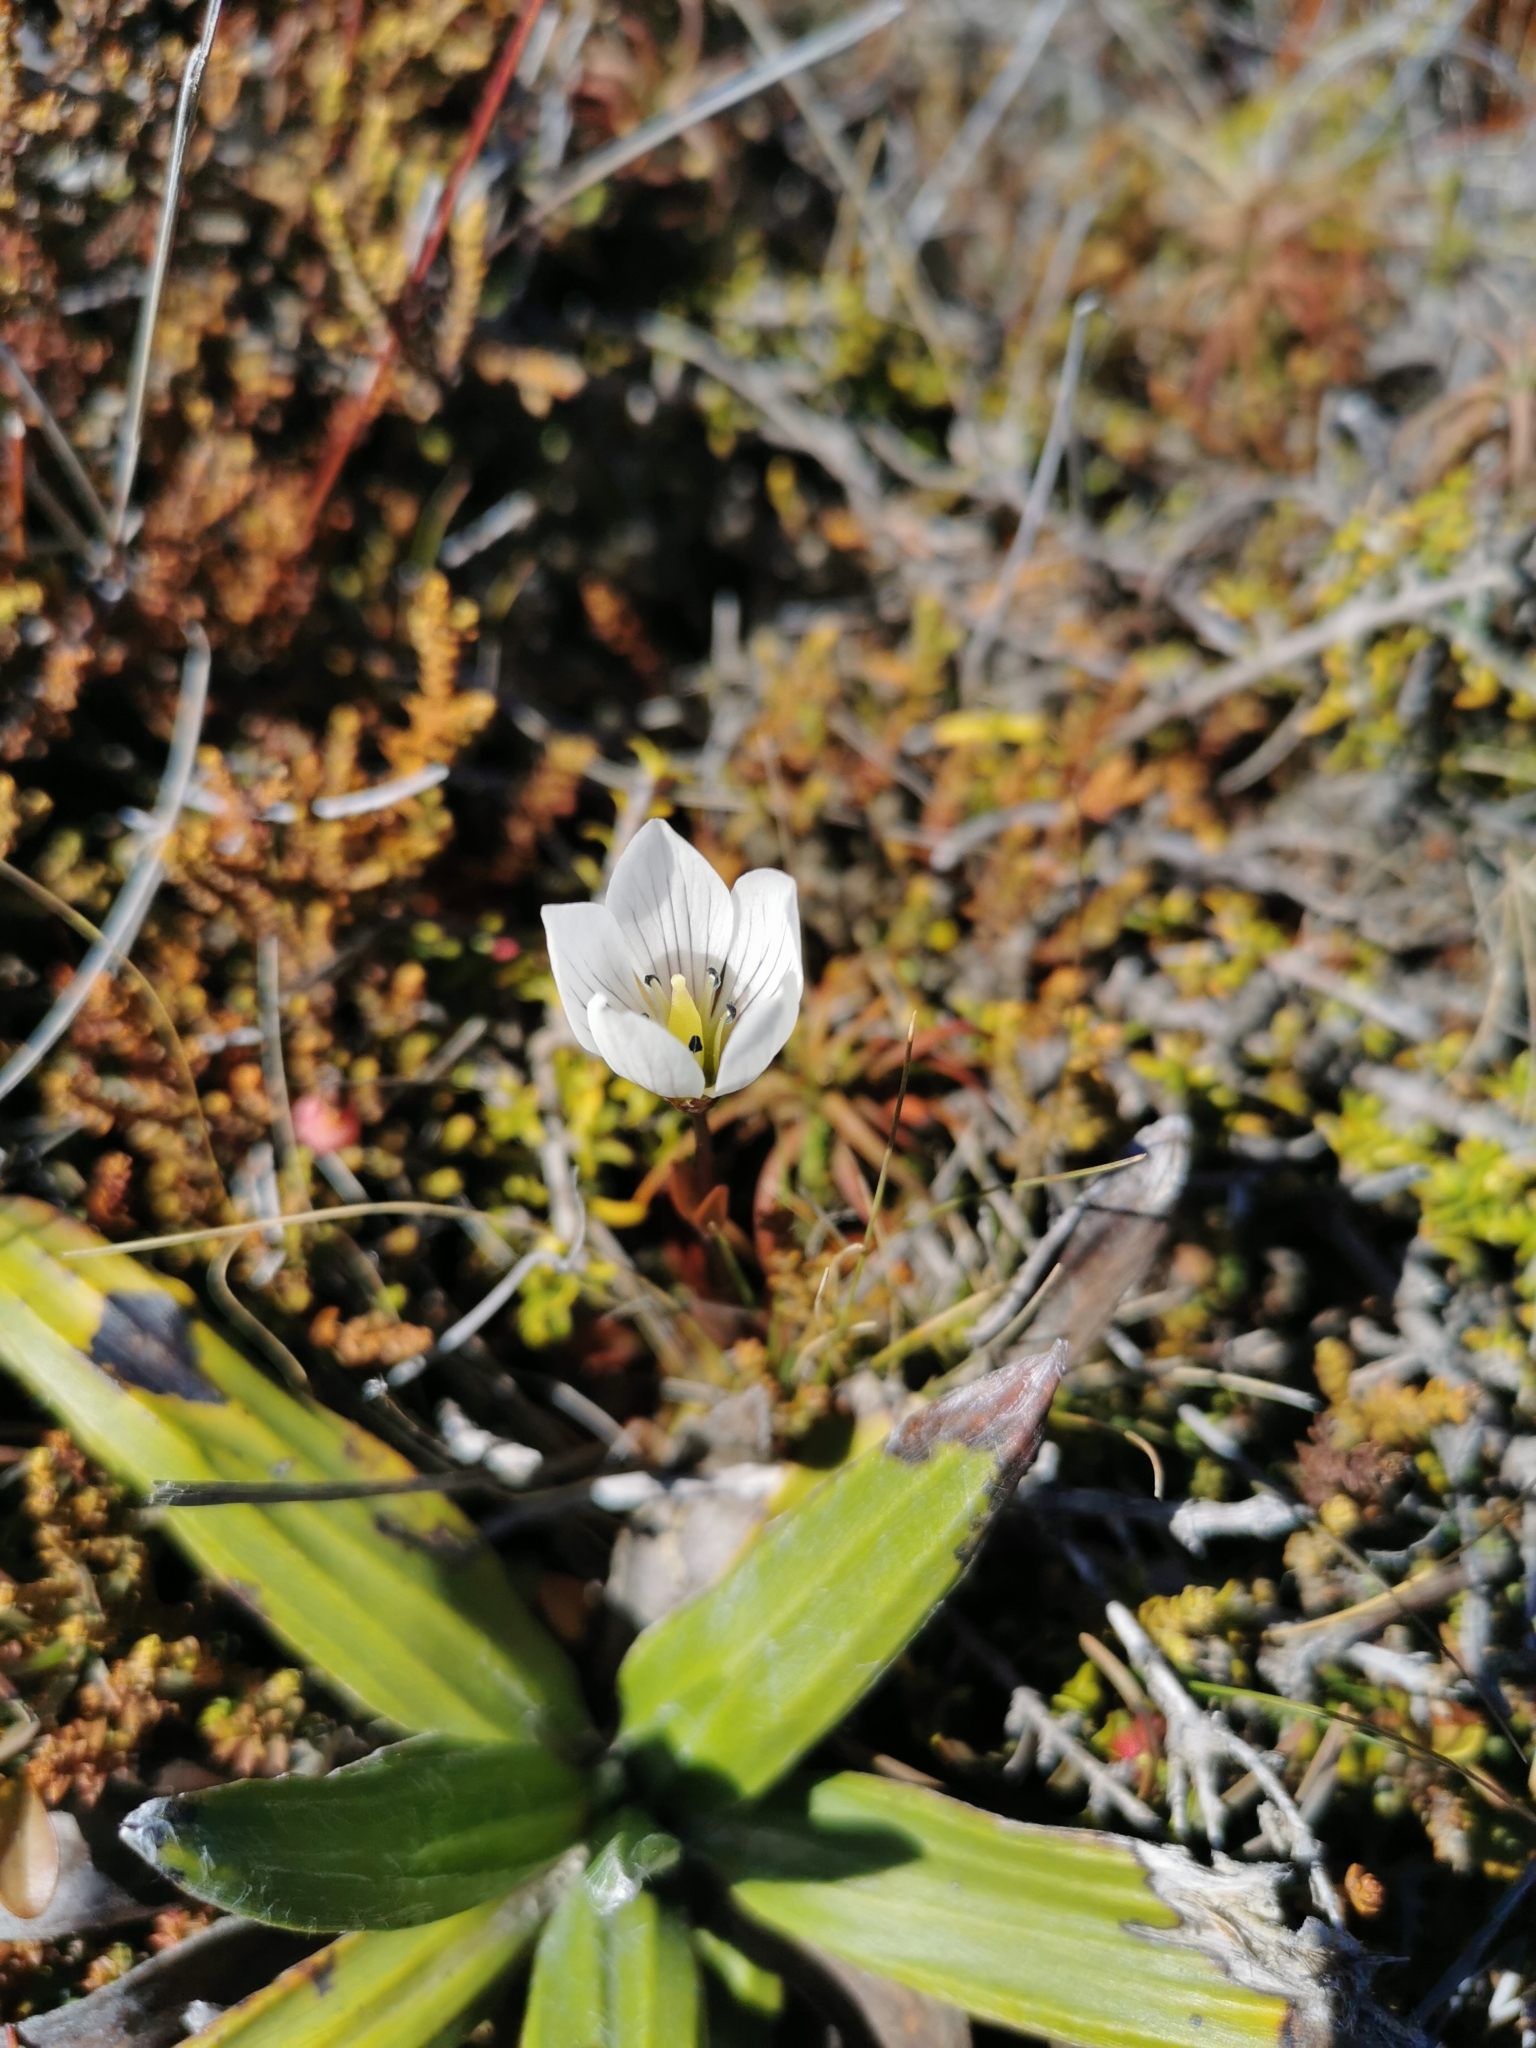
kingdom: Plantae
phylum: Tracheophyta
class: Magnoliopsida
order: Gentianales
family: Gentianaceae
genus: Gentianella
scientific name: Gentianella bellidifolia
